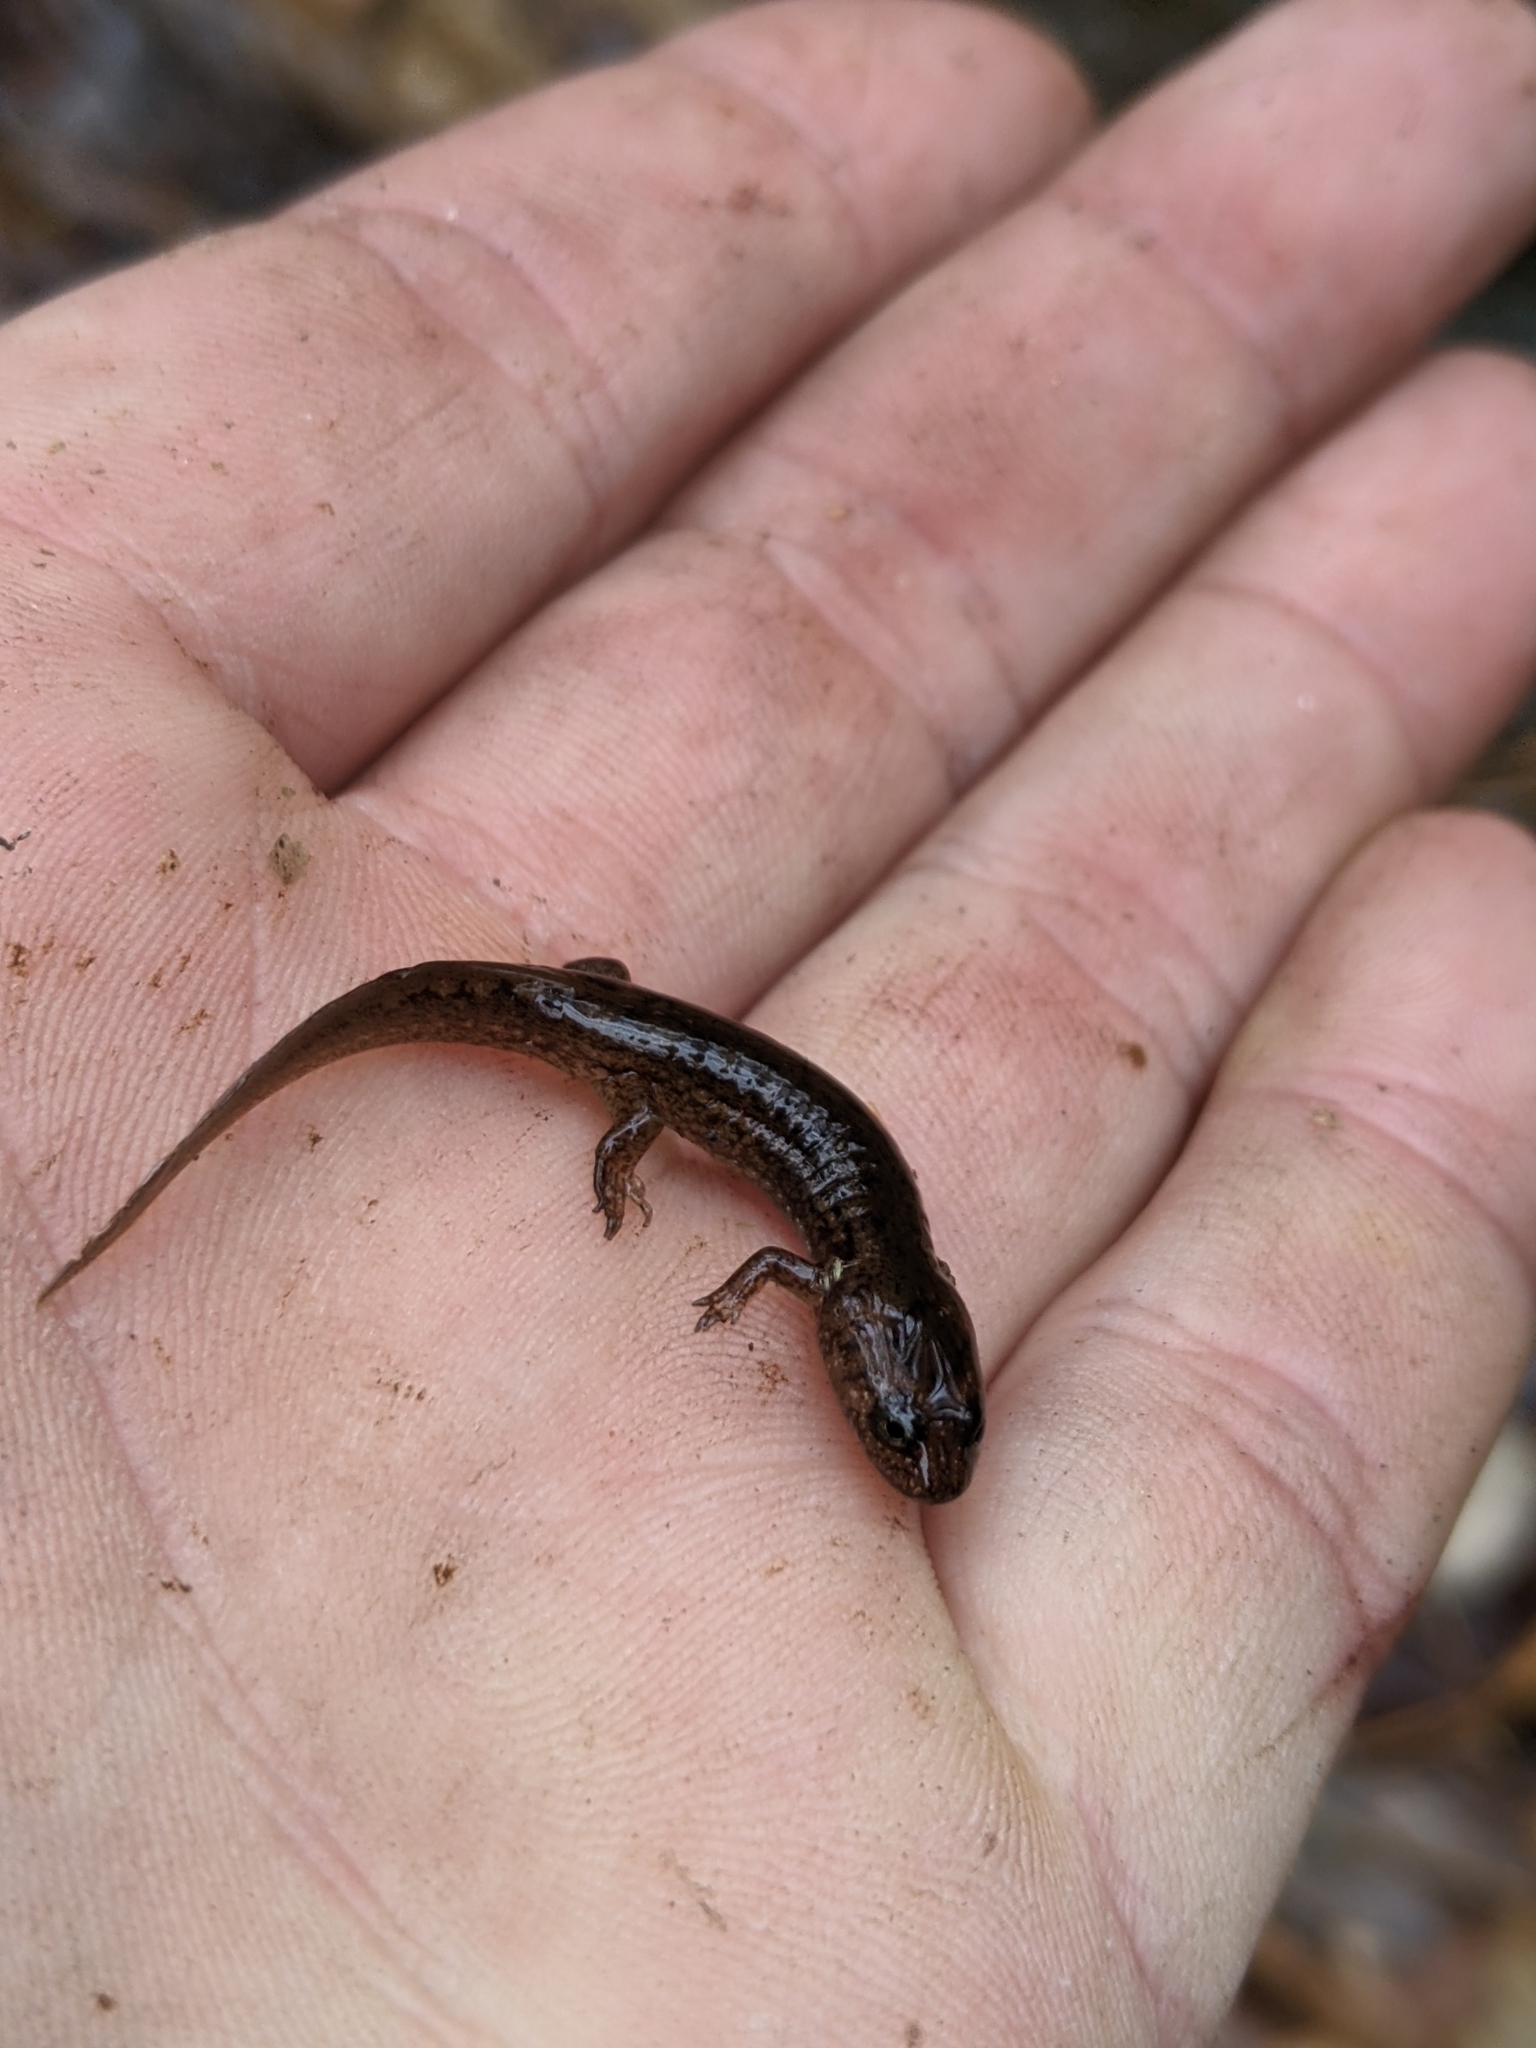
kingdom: Animalia
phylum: Chordata
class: Amphibia
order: Caudata
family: Plethodontidae
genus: Desmognathus
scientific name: Desmognathus
